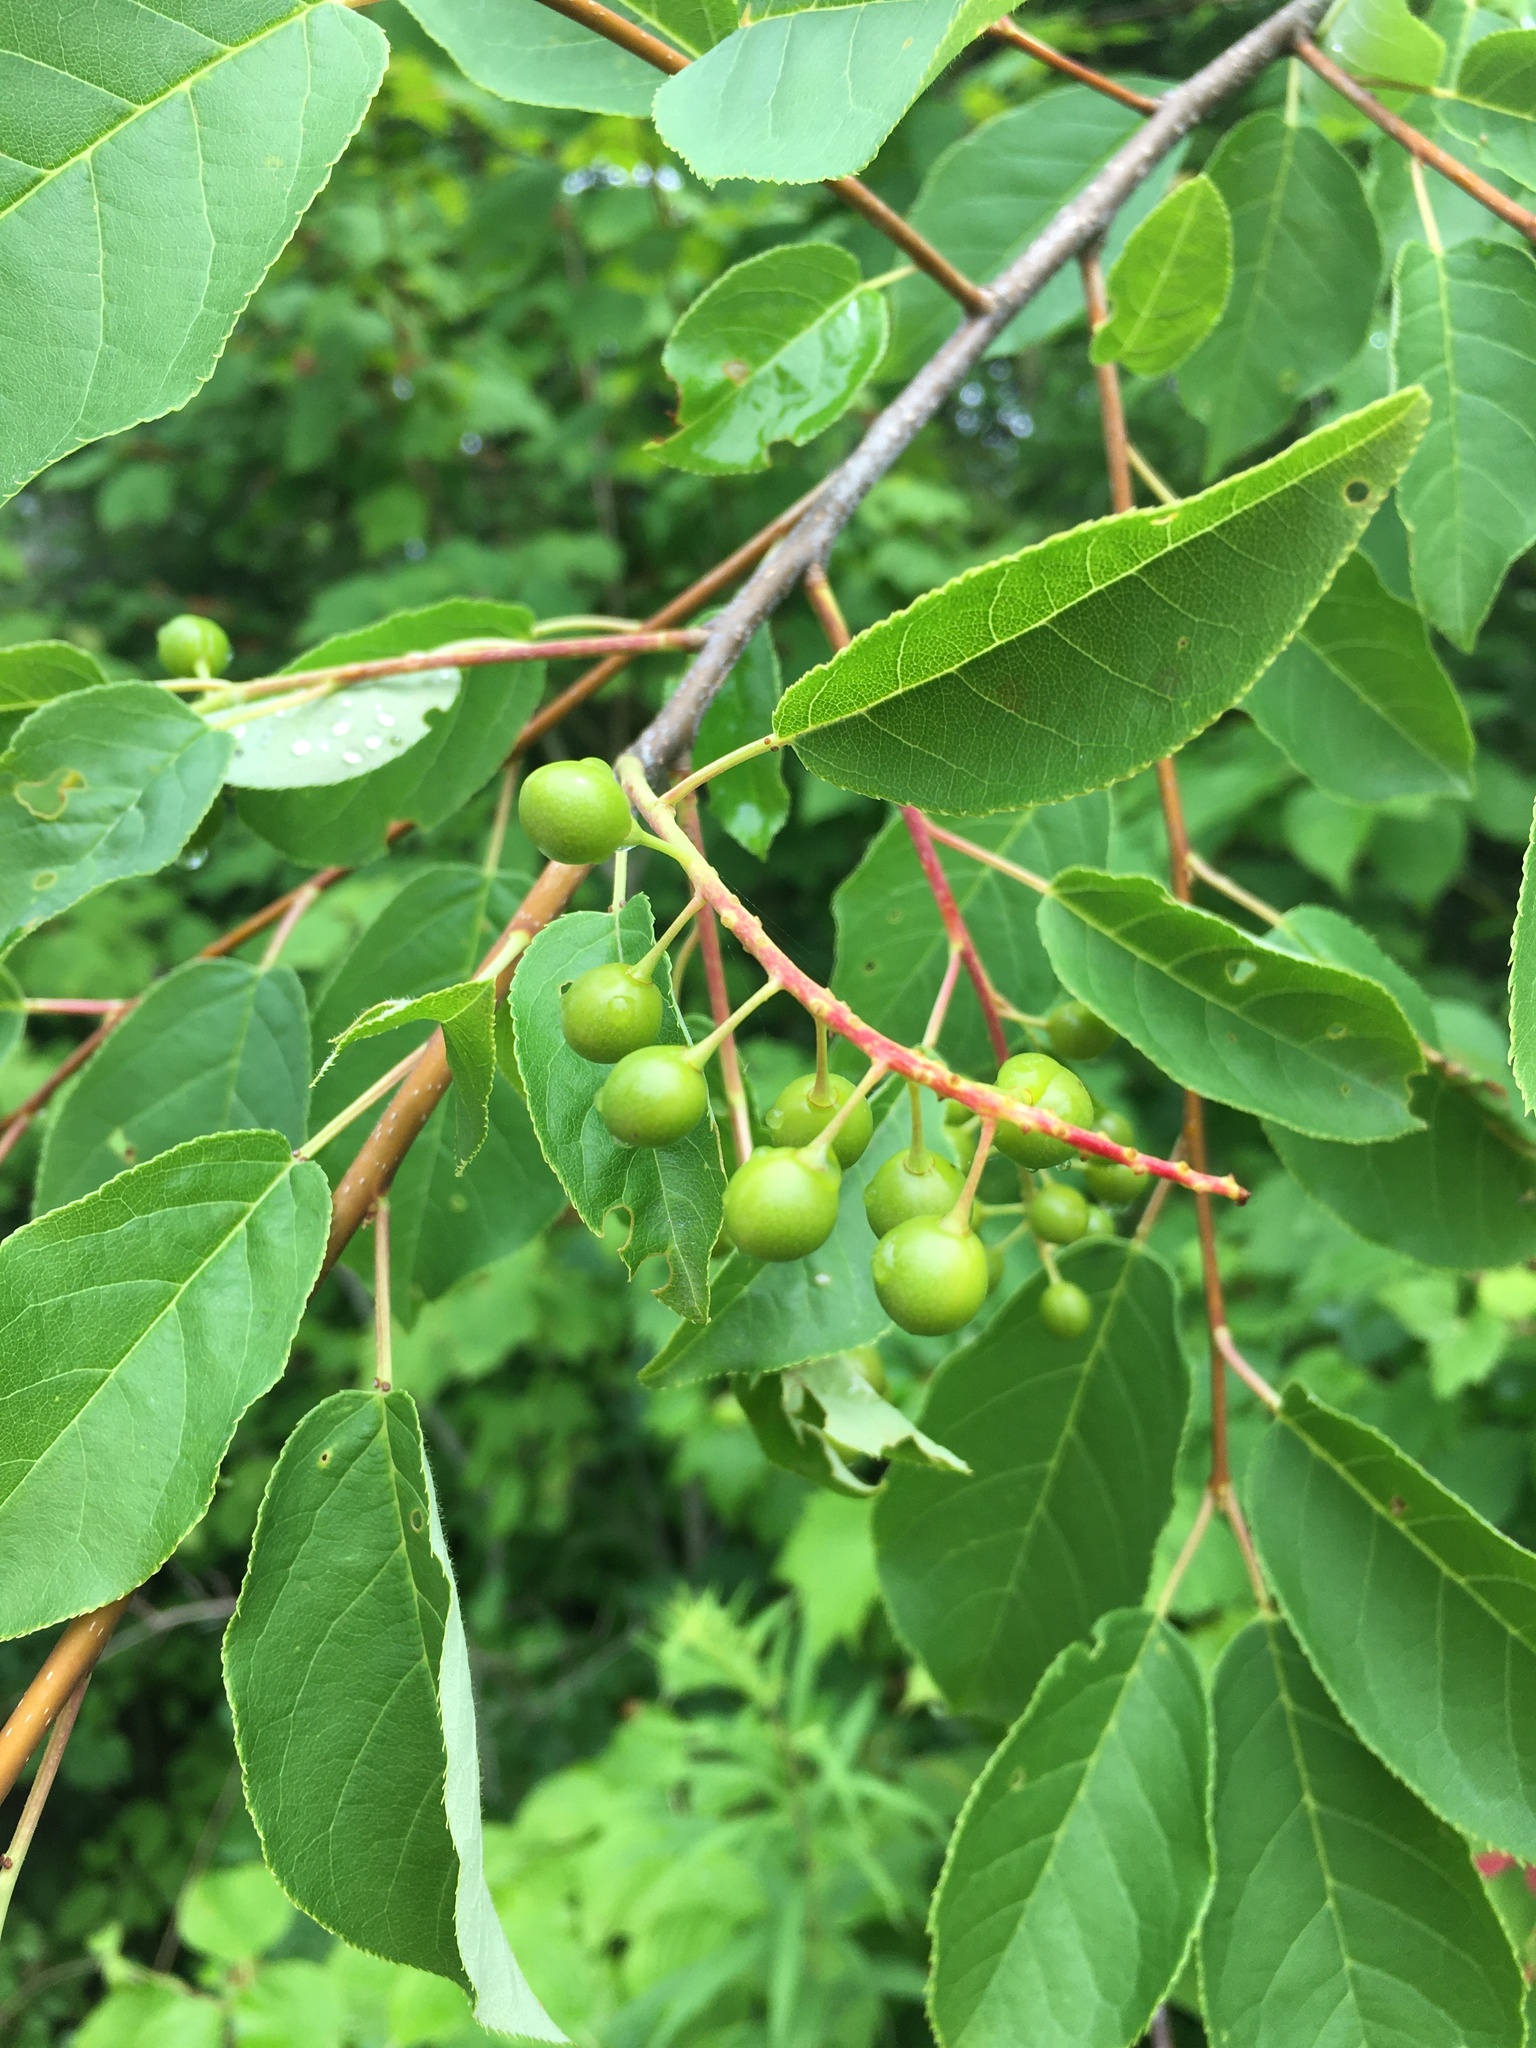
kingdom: Plantae
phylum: Tracheophyta
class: Magnoliopsida
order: Rosales
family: Rosaceae
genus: Prunus
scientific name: Prunus virginiana
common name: Chokecherry
